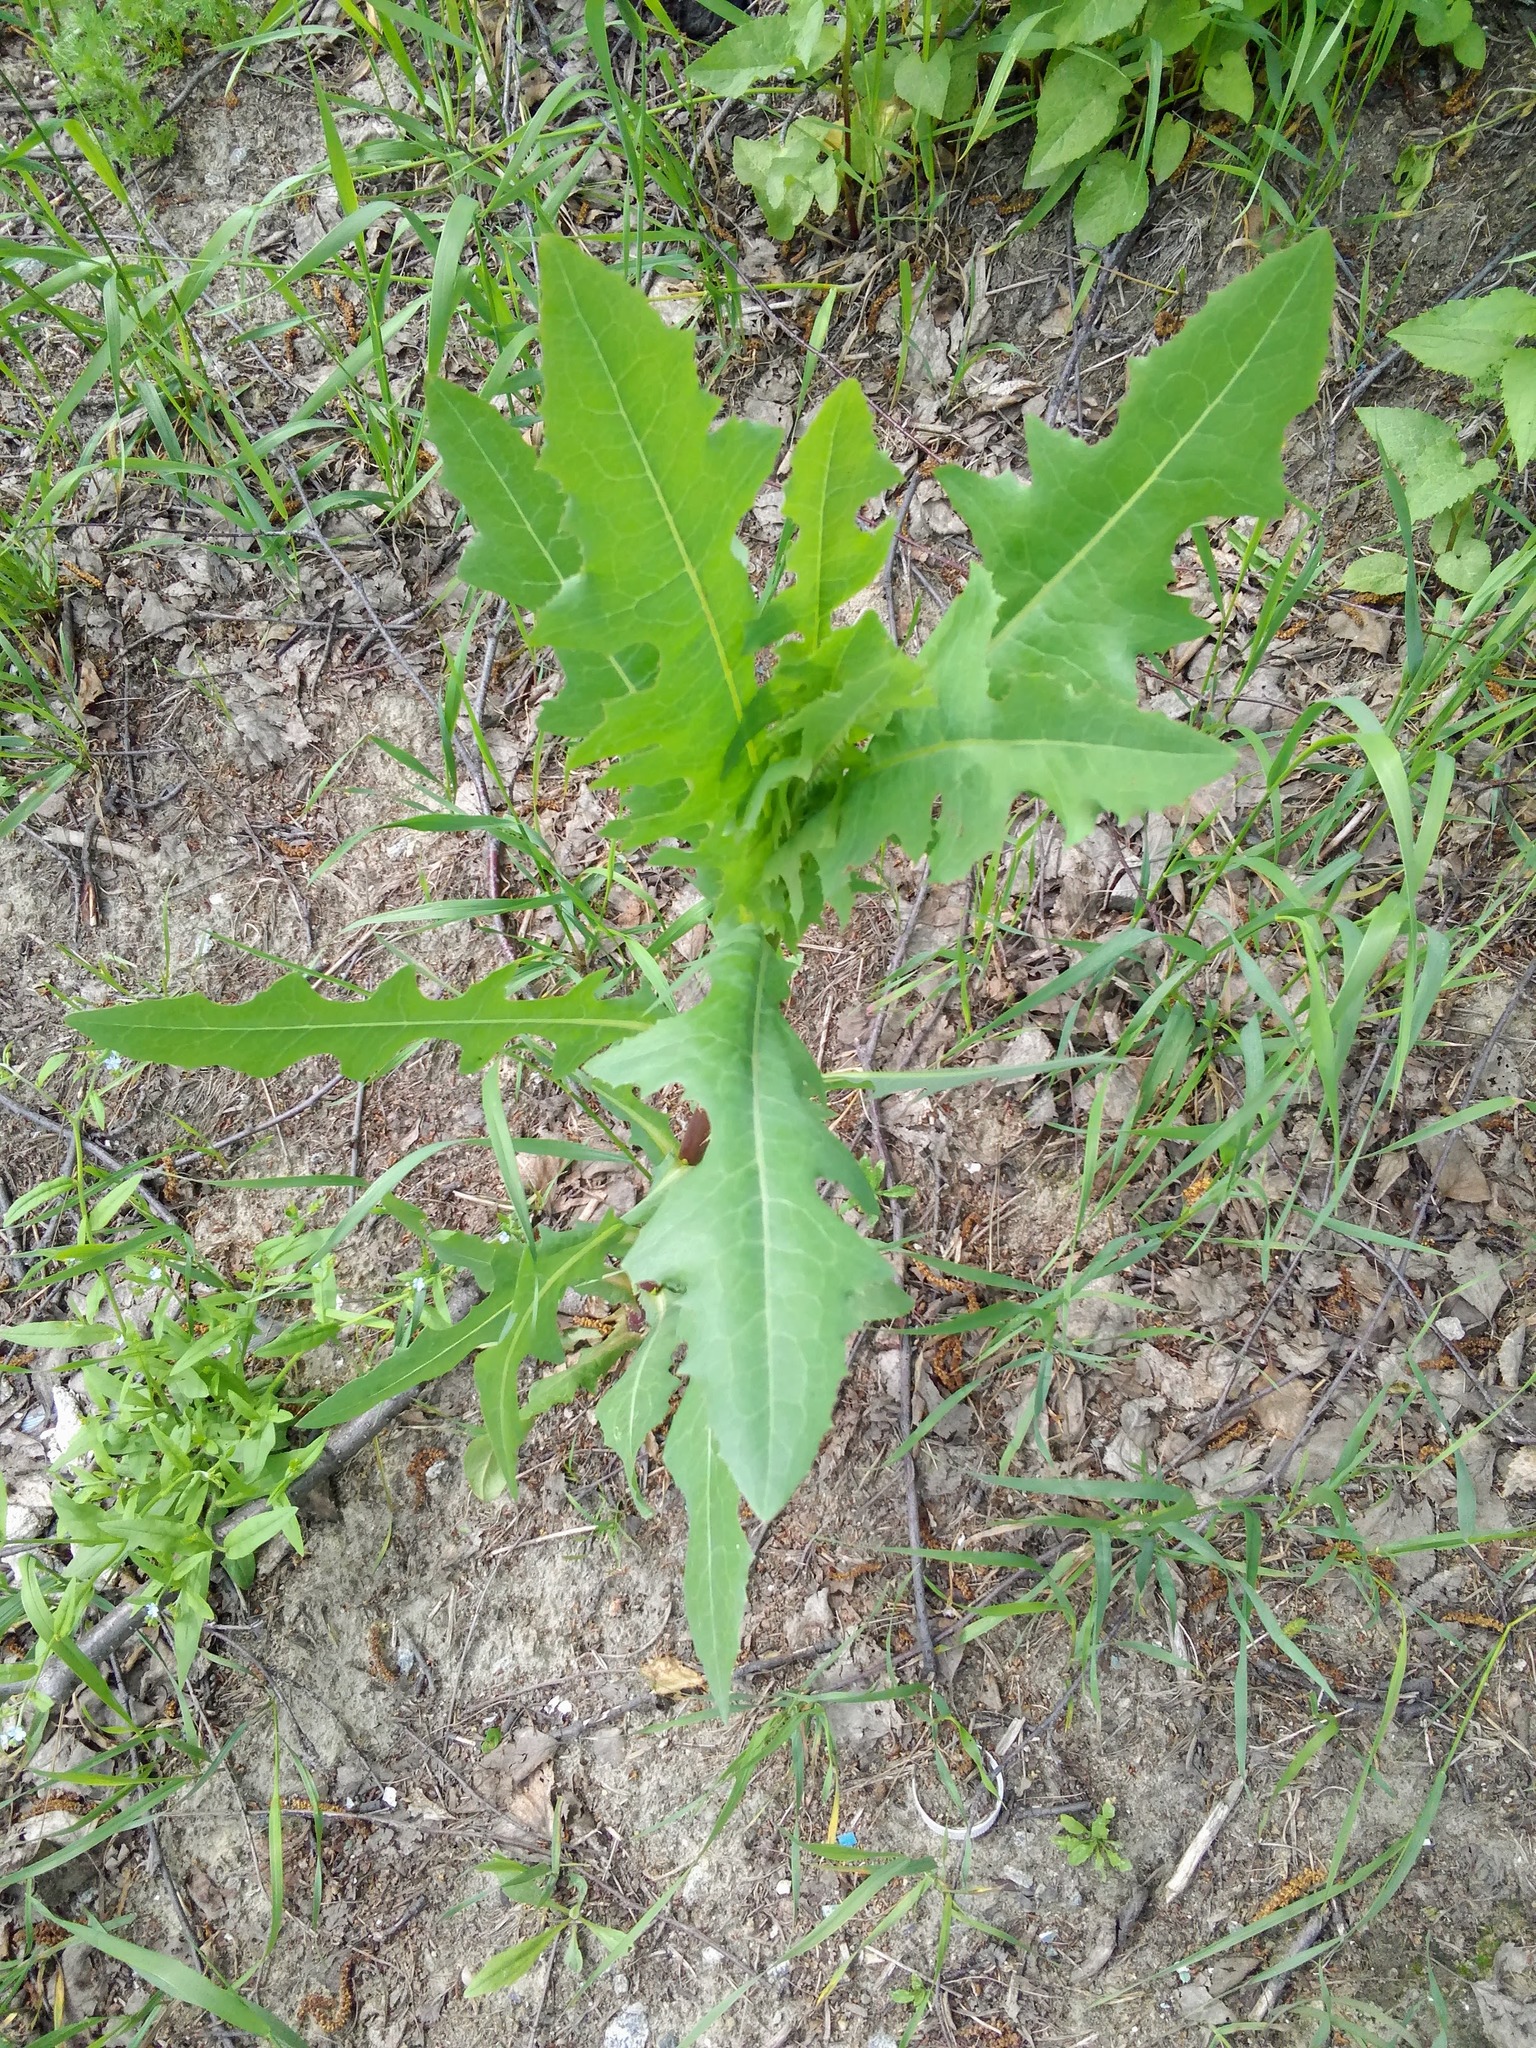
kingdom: Plantae
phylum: Tracheophyta
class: Magnoliopsida
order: Asterales
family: Asteraceae
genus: Lactuca
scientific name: Lactuca serriola
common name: Prickly lettuce
